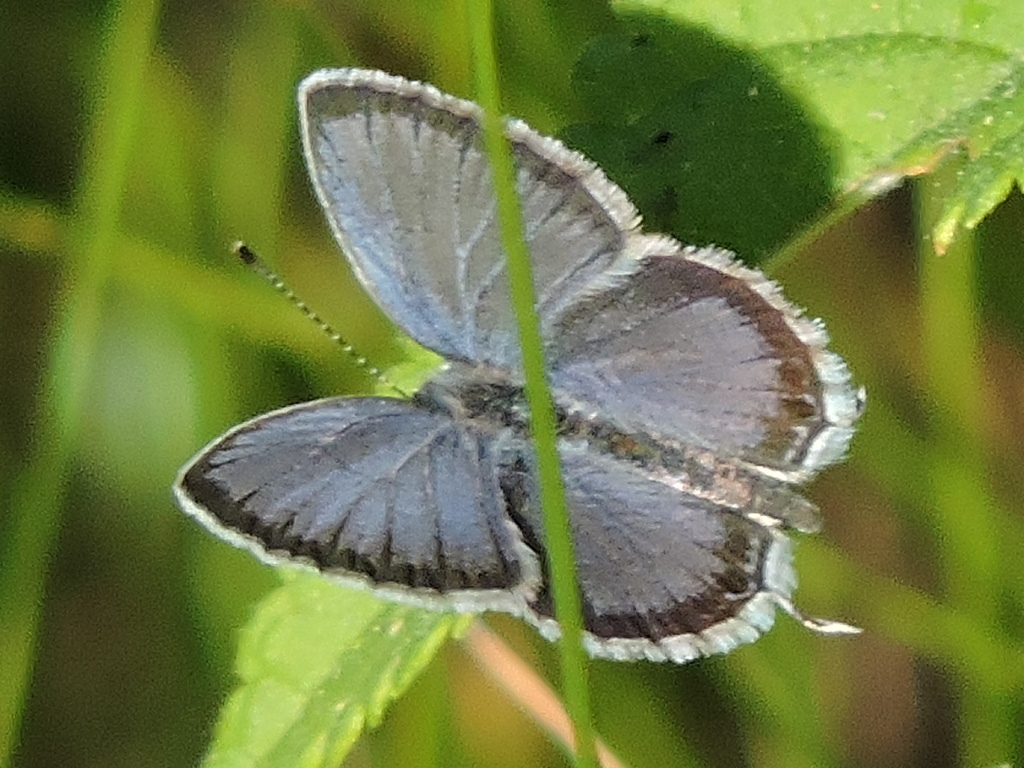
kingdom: Animalia
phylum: Arthropoda
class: Insecta
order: Lepidoptera
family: Lycaenidae
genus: Elkalyce
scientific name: Elkalyce comyntas
